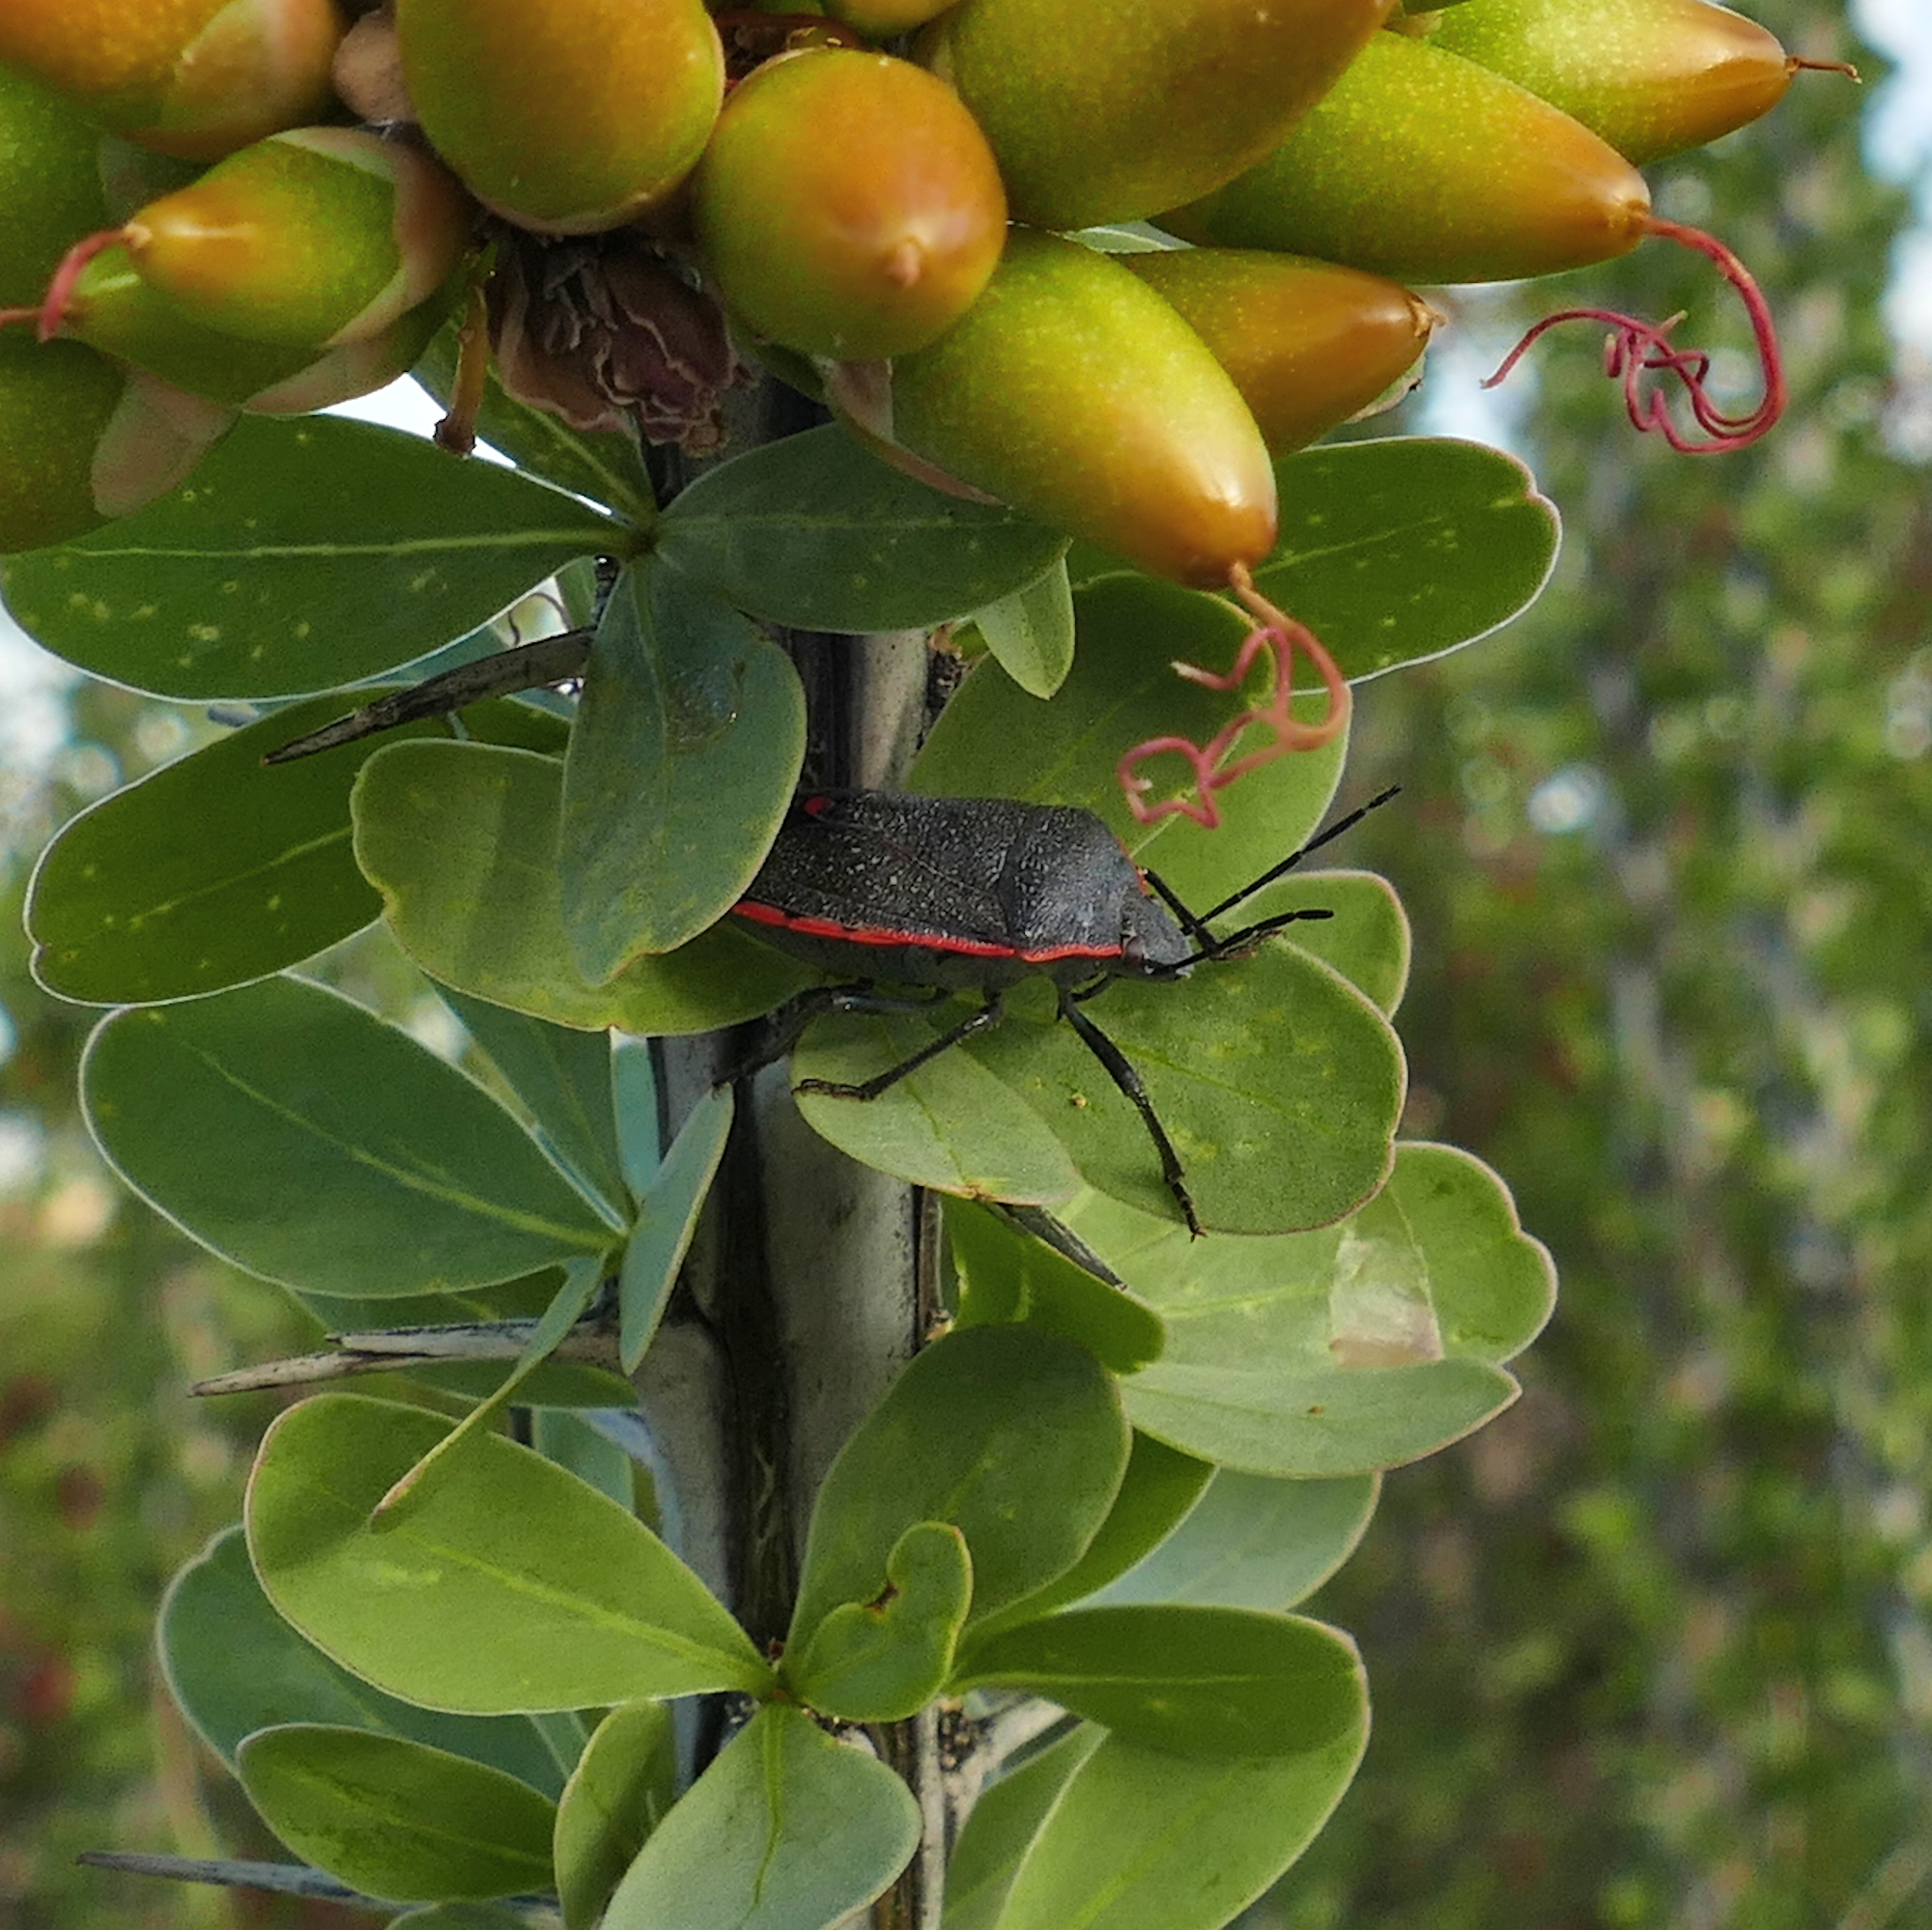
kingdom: Animalia
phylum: Arthropoda
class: Insecta
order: Hemiptera
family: Pentatomidae
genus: Chlorochroa
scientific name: Chlorochroa ligata
